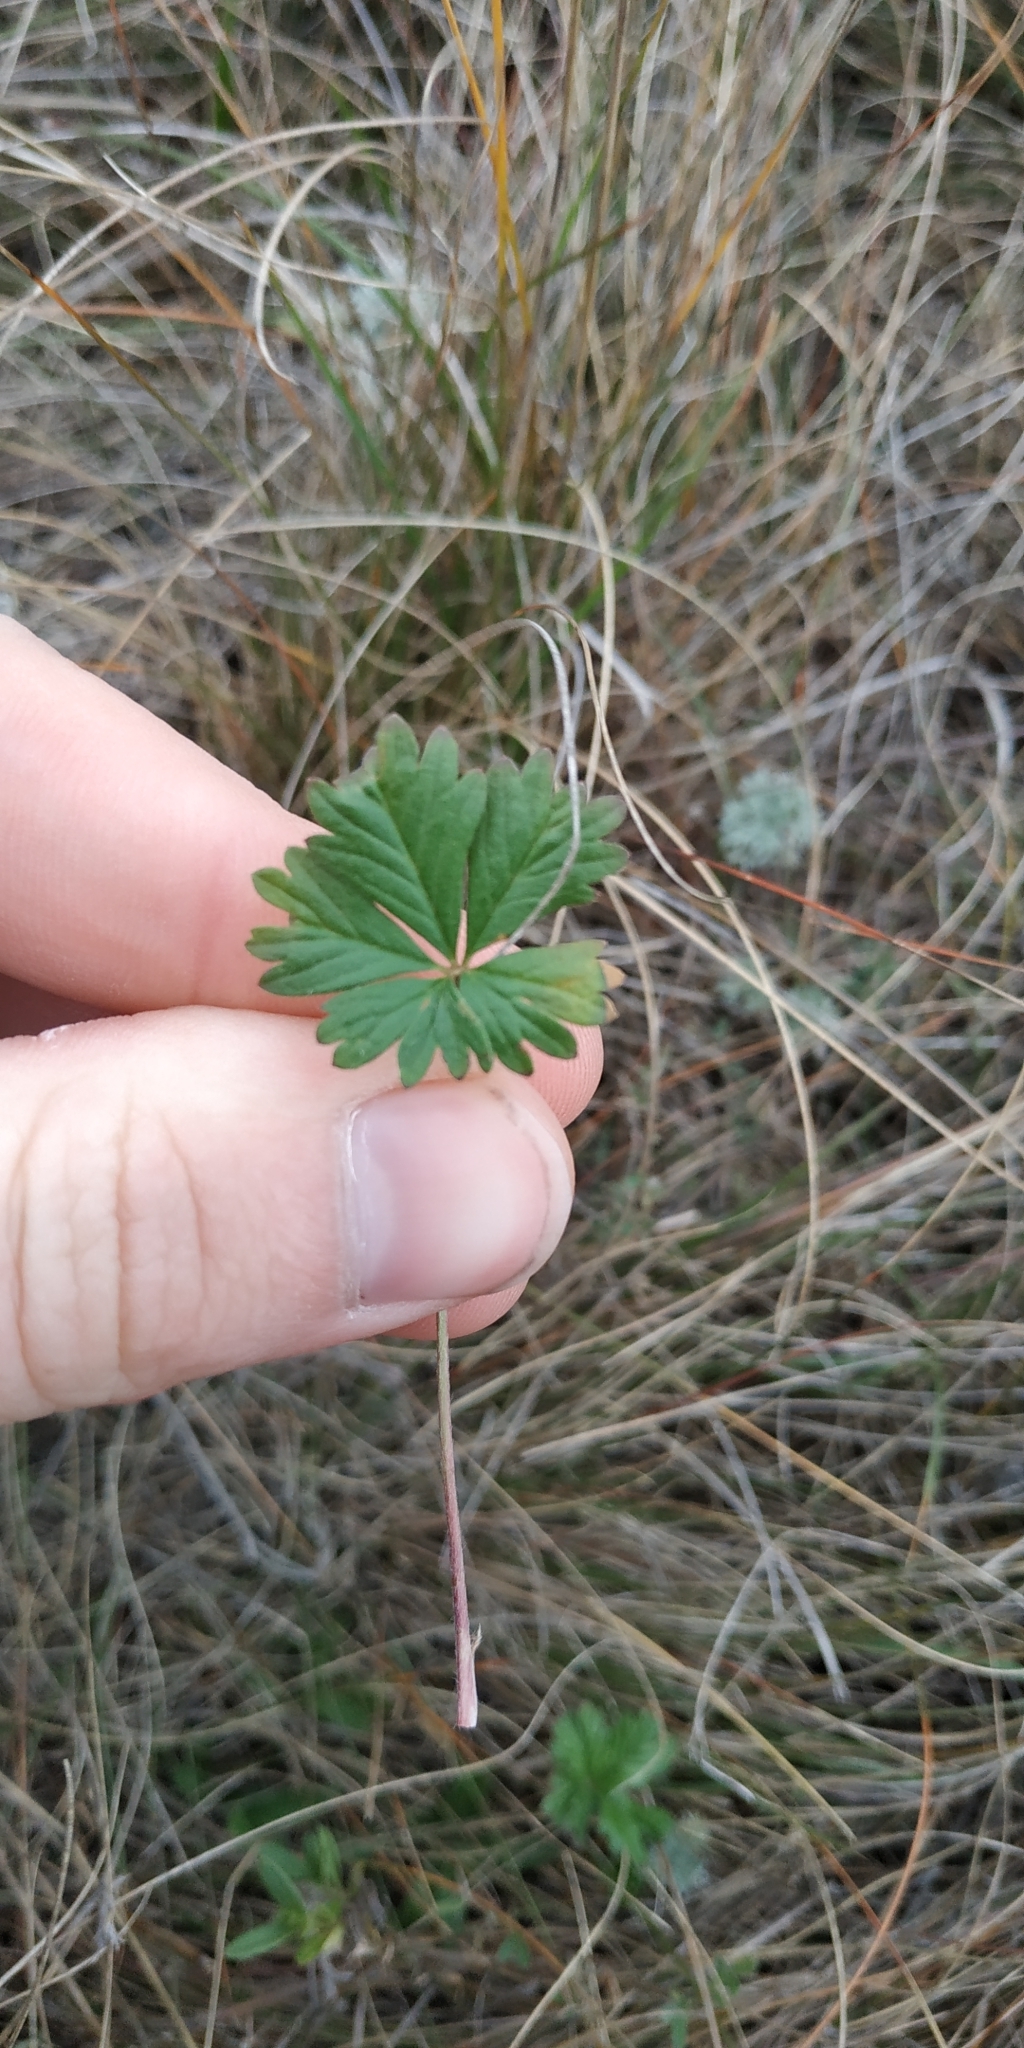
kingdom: Plantae
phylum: Tracheophyta
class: Magnoliopsida
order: Rosales
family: Rosaceae
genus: Potentilla
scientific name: Potentilla argentea
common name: Hoary cinquefoil
